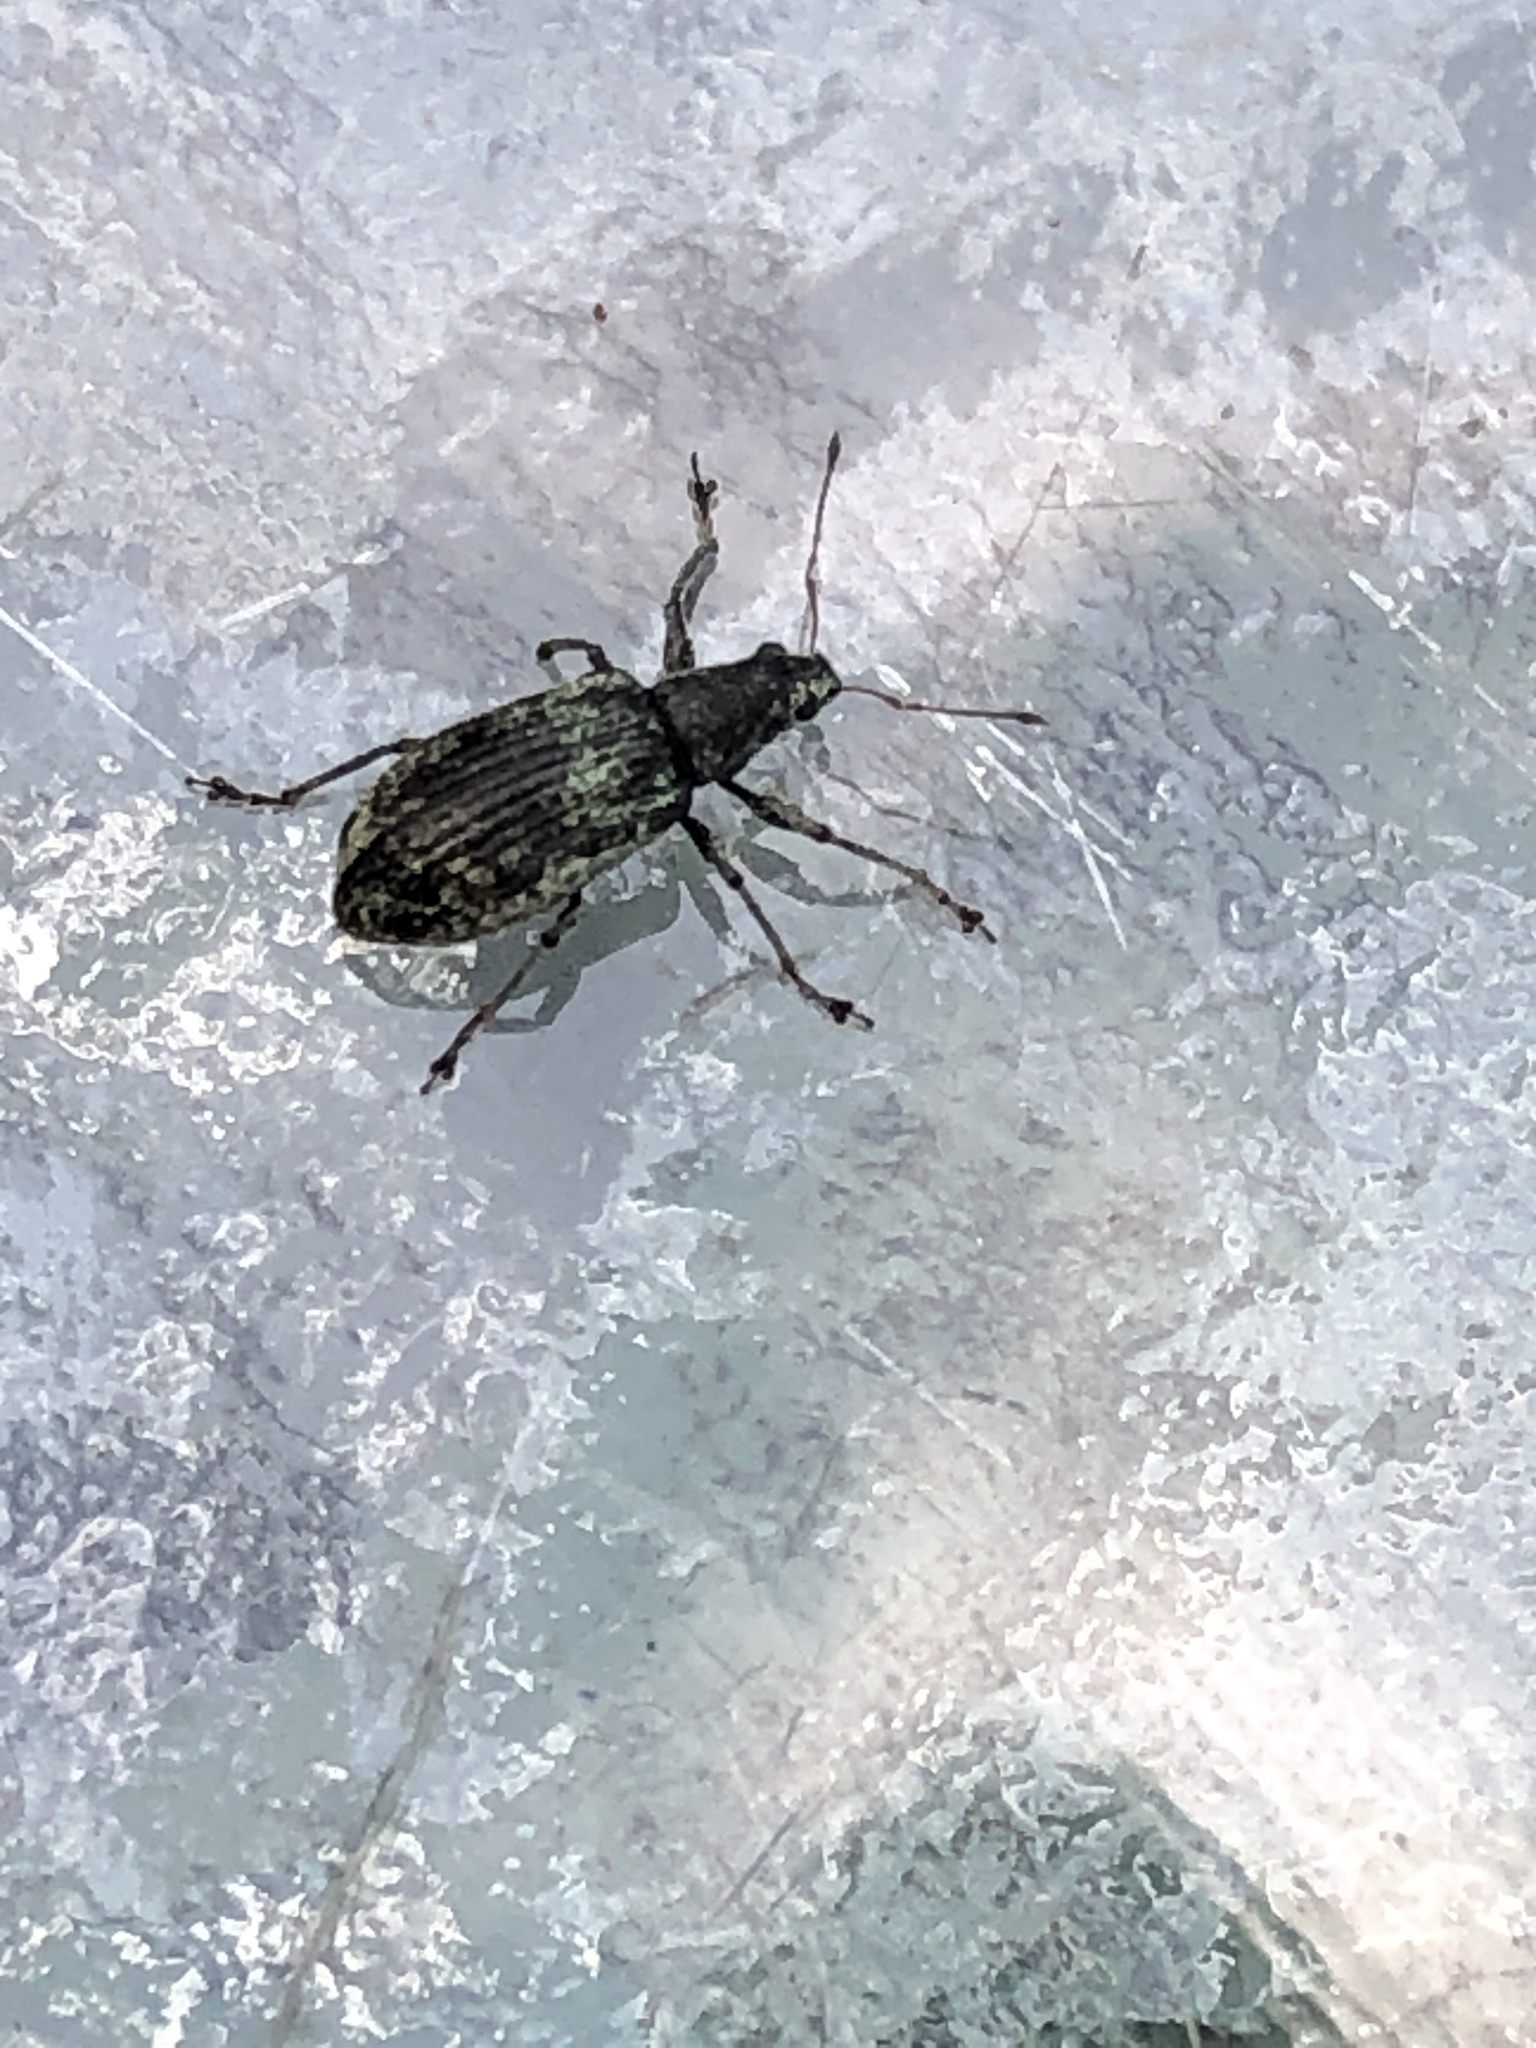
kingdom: Animalia
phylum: Arthropoda
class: Insecta
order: Coleoptera
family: Curculionidae
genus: Polydrusus
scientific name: Polydrusus cervinus
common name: Weevil
